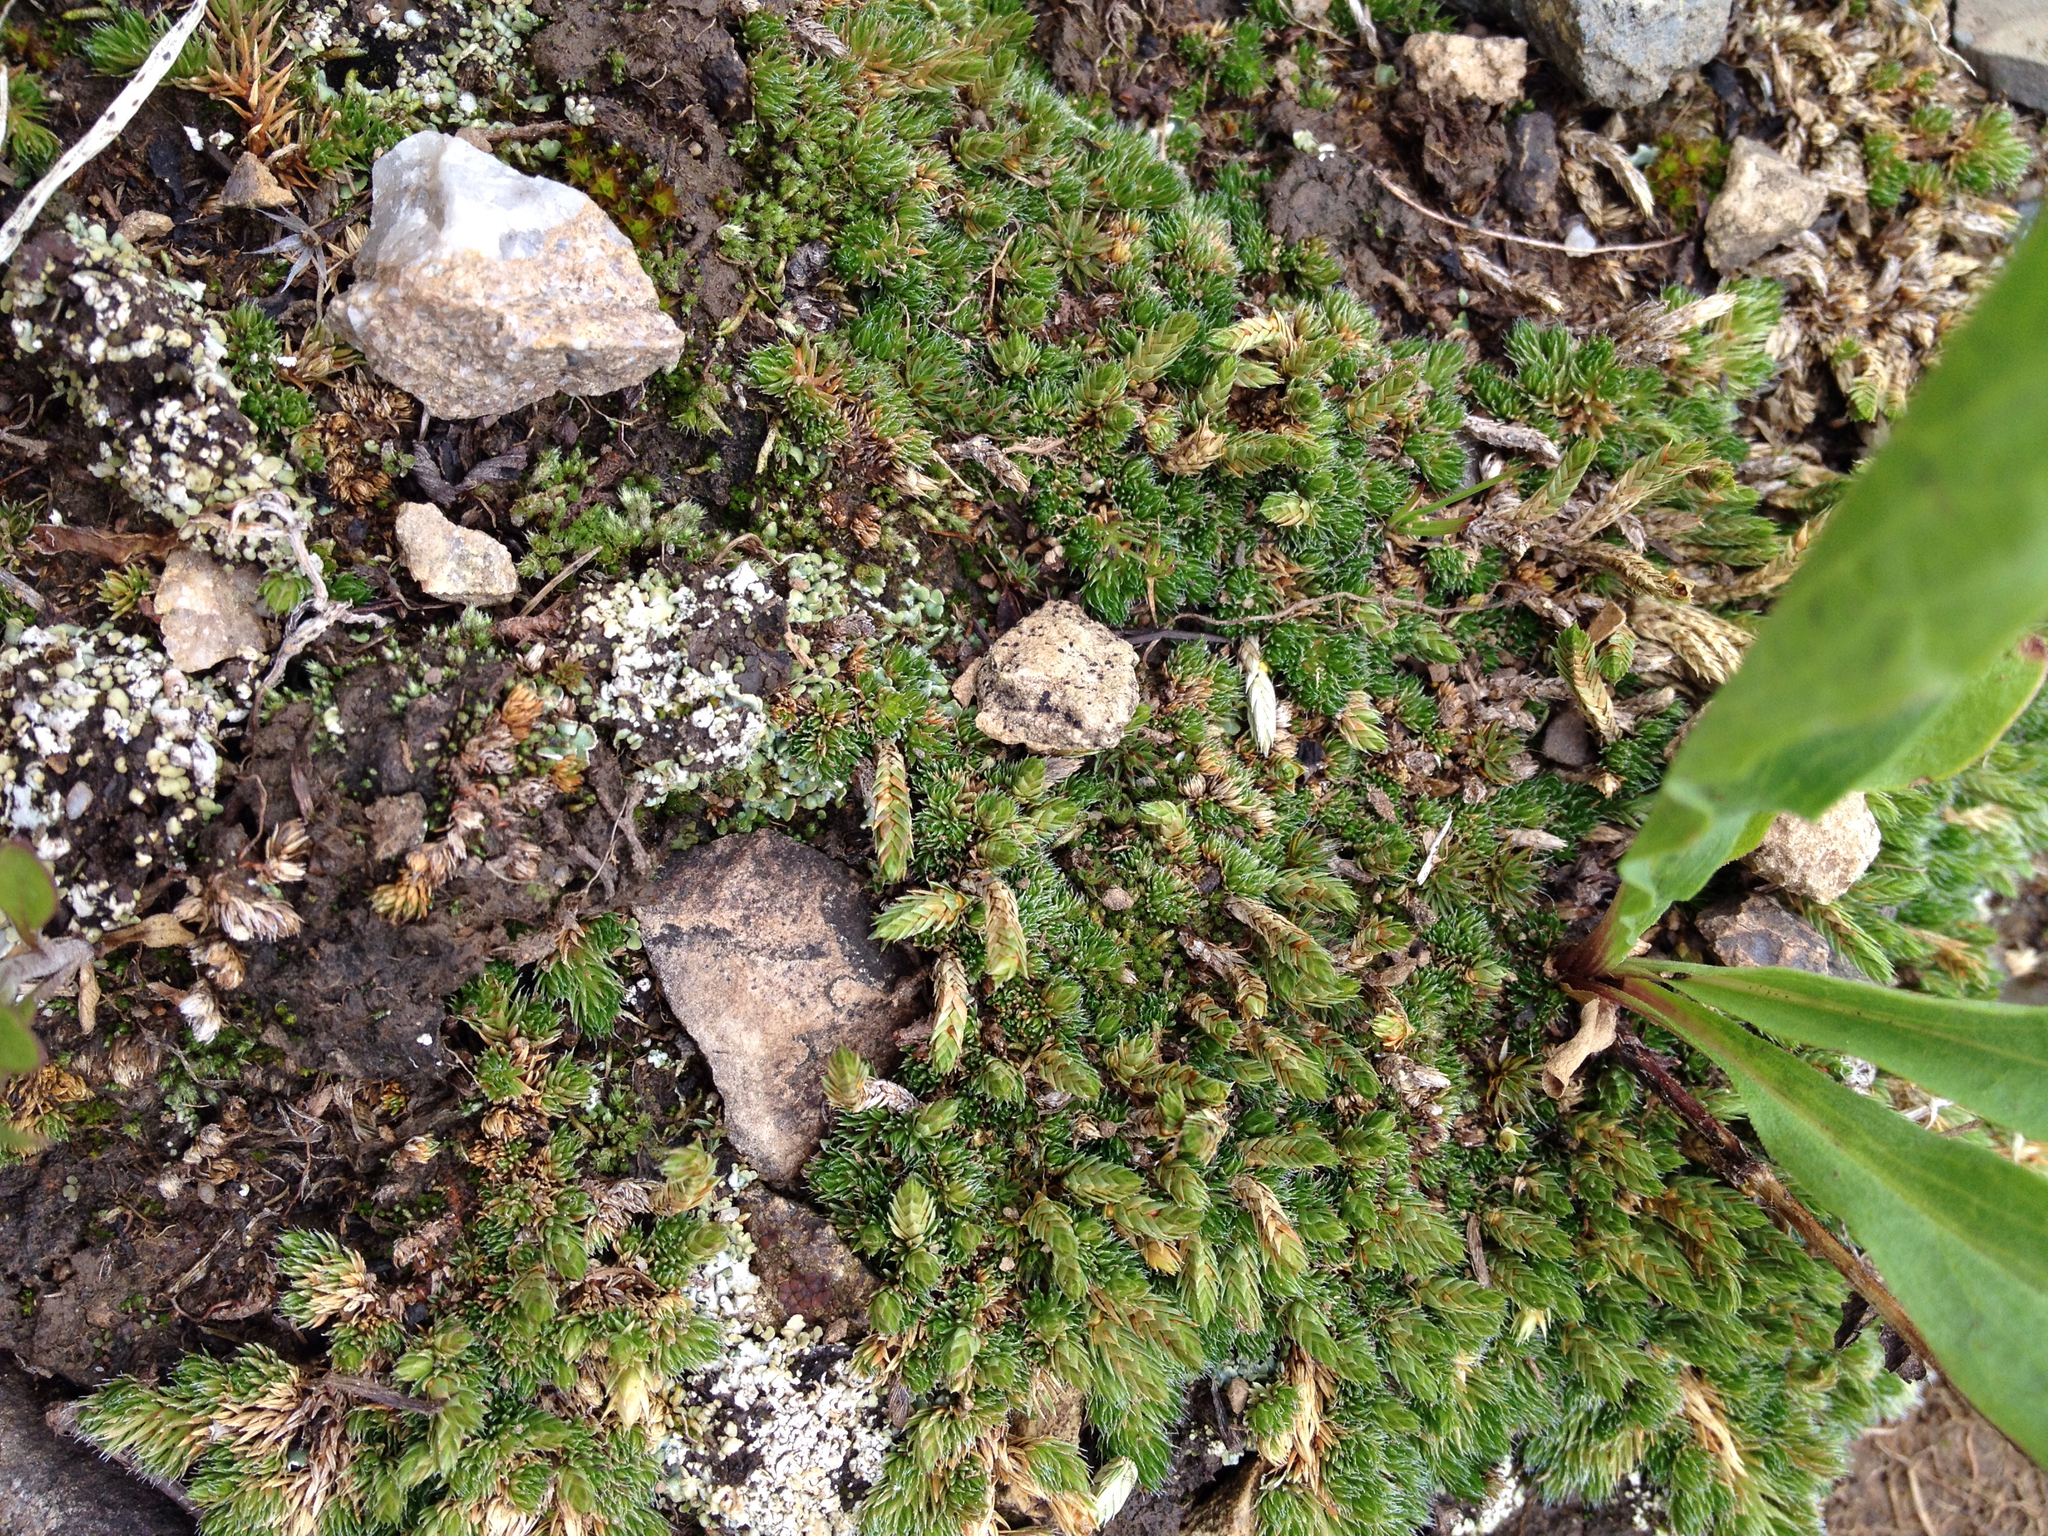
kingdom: Plantae
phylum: Tracheophyta
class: Lycopodiopsida
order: Selaginellales
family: Selaginellaceae
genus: Selaginella
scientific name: Selaginella densa
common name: Mountain spike-moss
